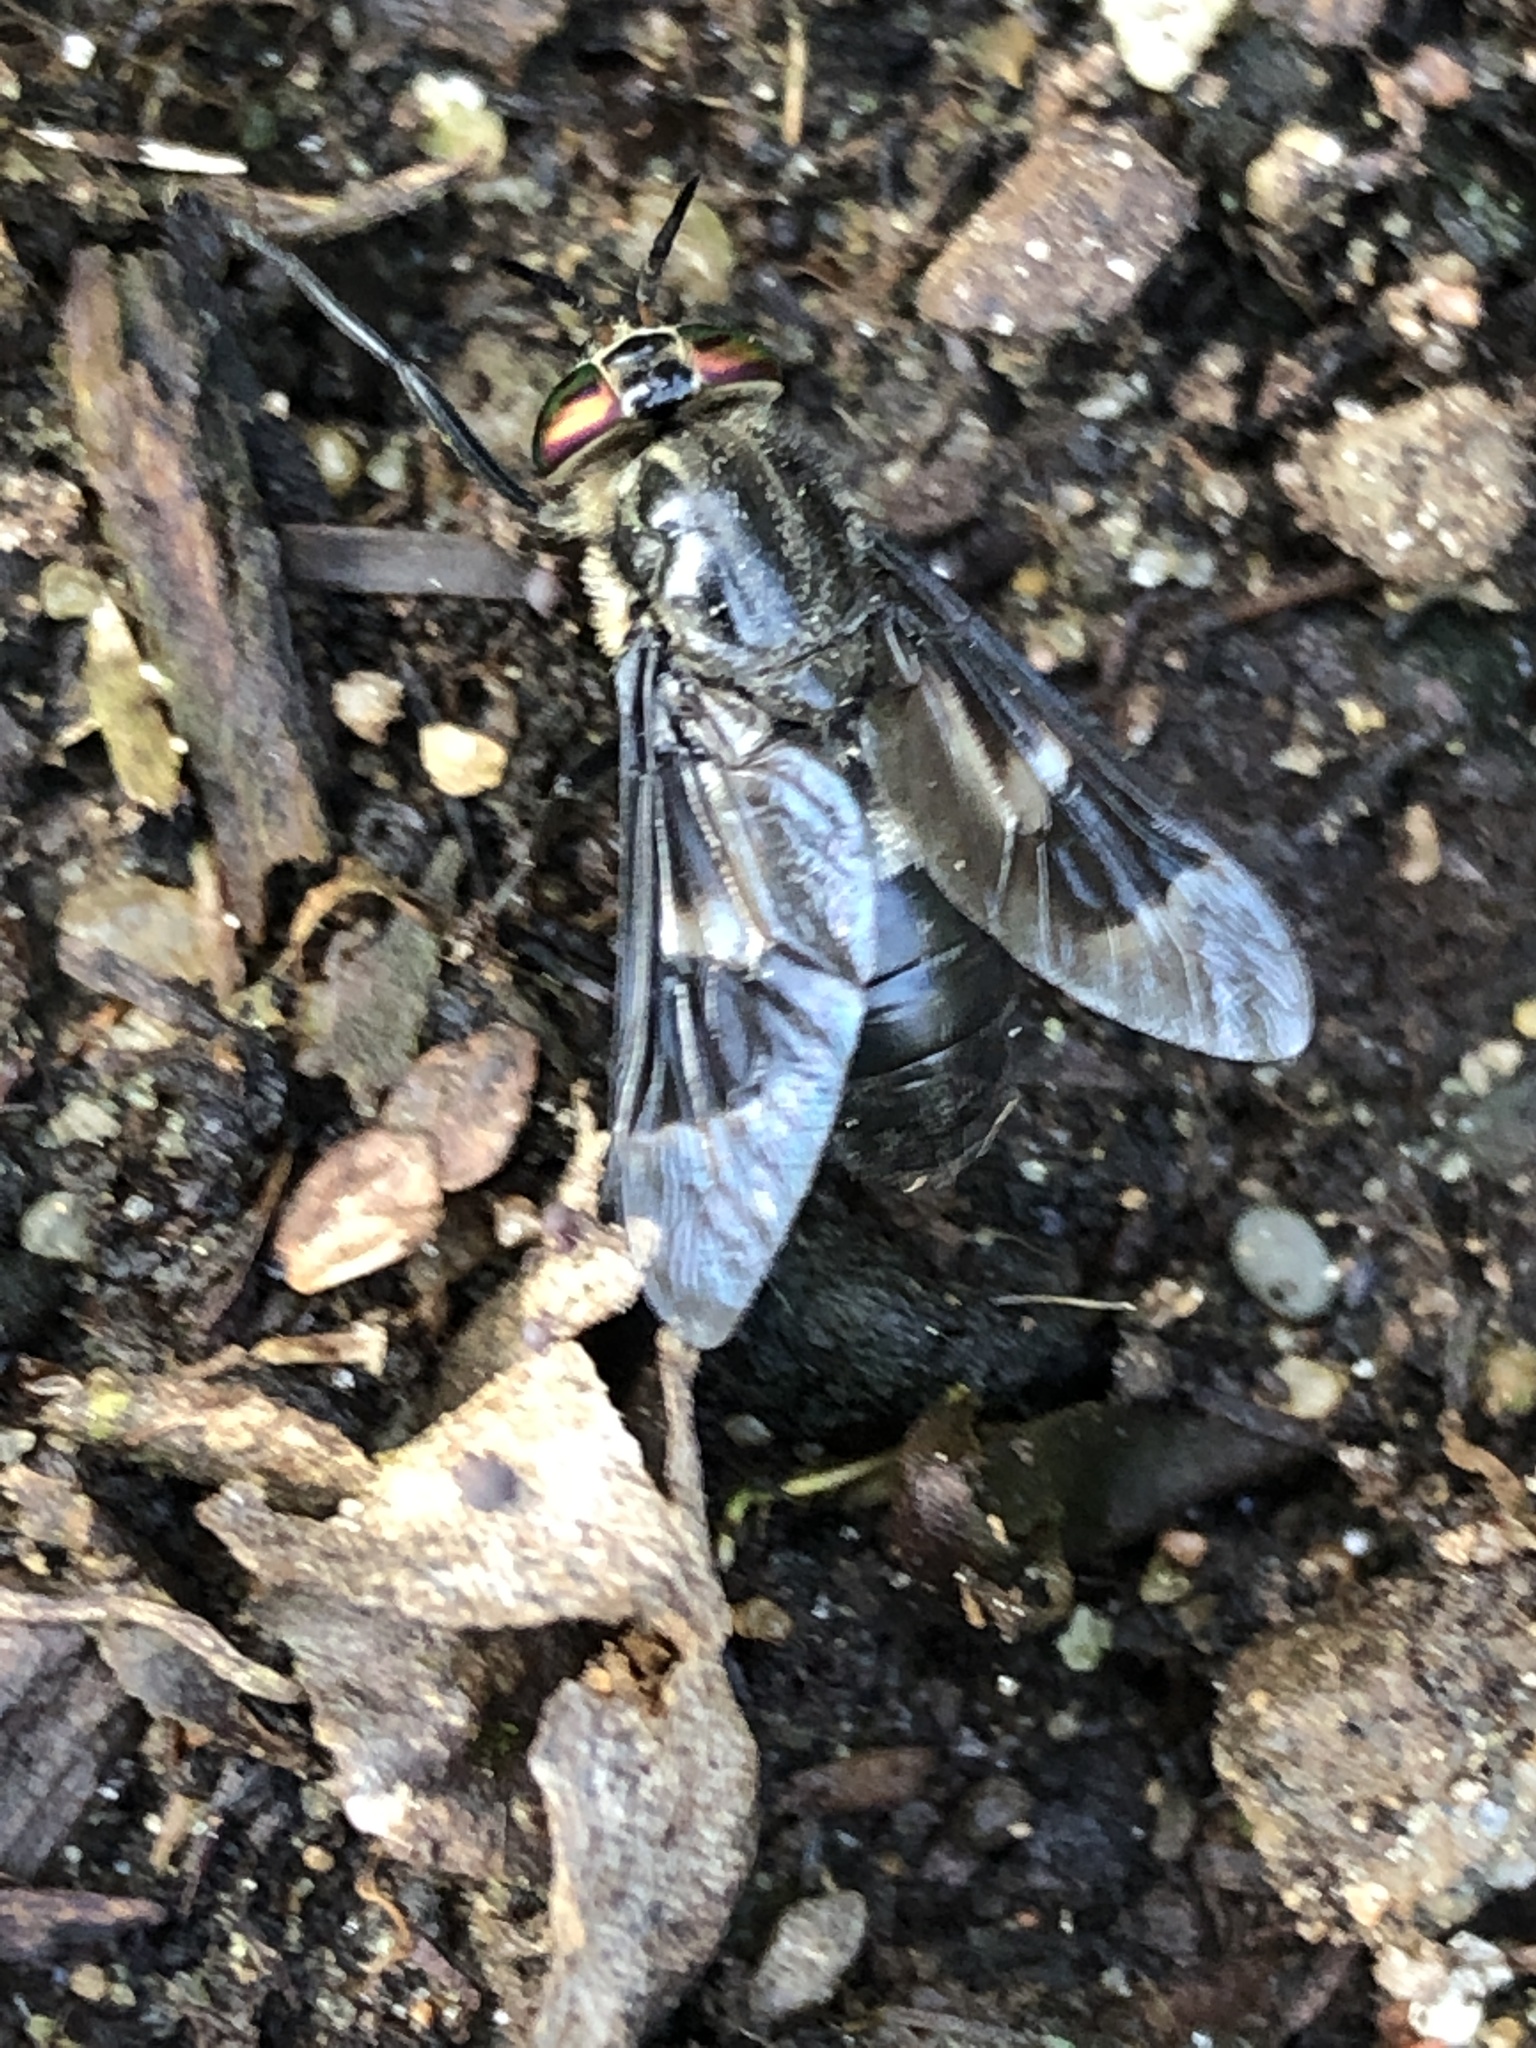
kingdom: Animalia
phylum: Arthropoda
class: Insecta
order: Diptera
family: Tabanidae
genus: Chrysops
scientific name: Chrysops excitans
